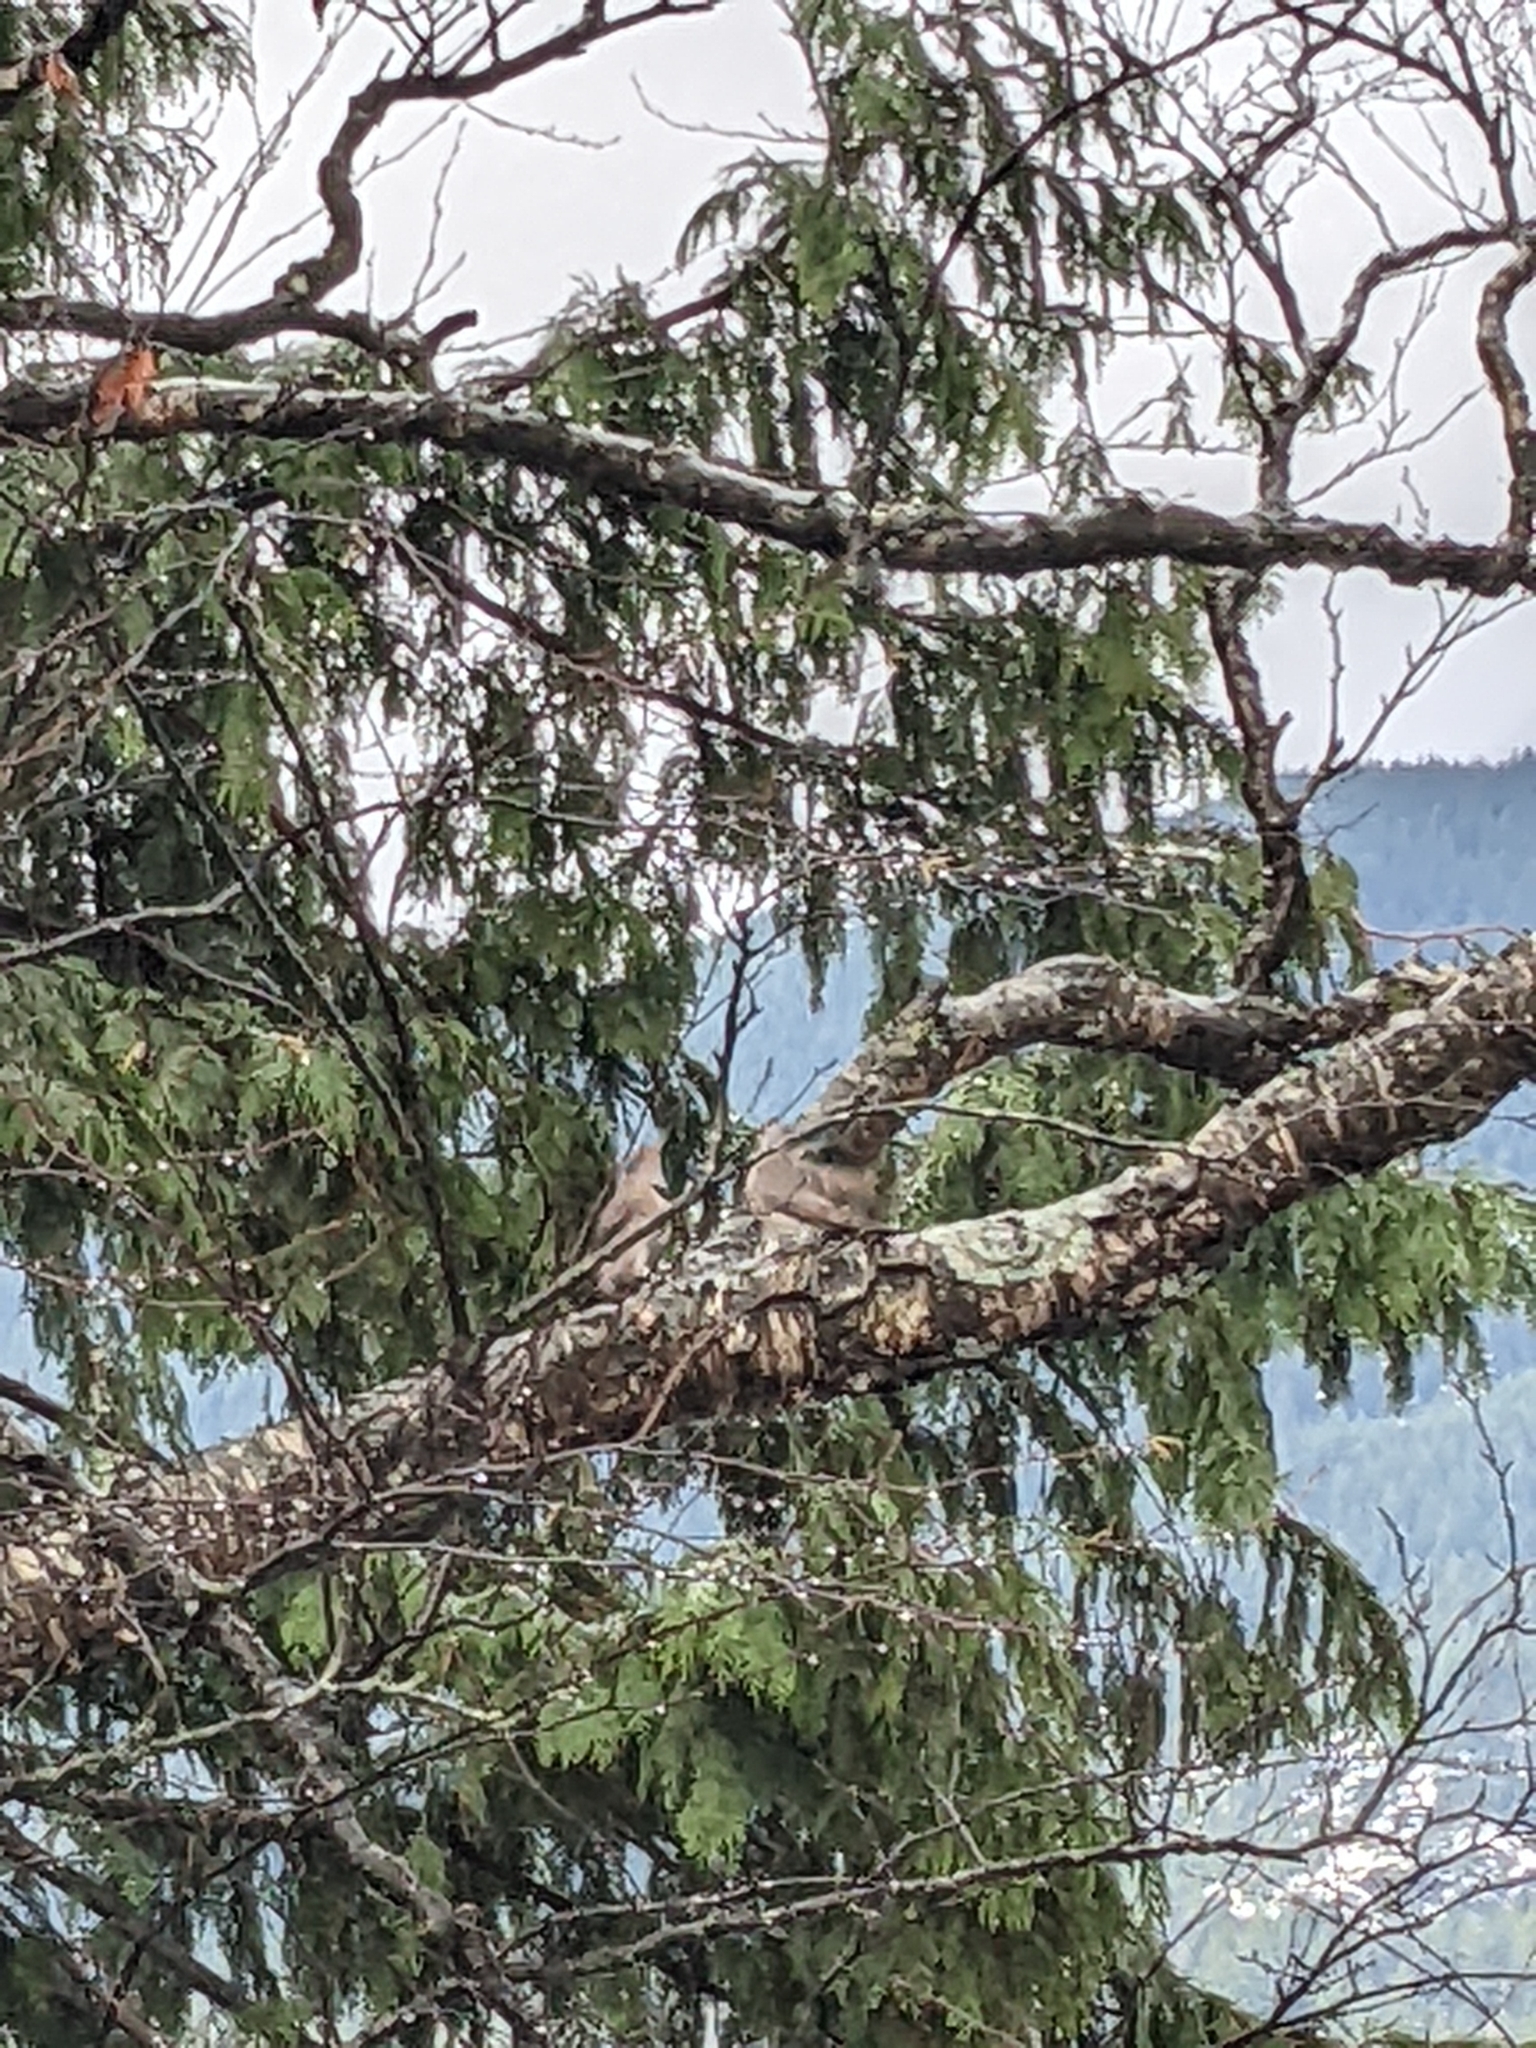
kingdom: Animalia
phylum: Chordata
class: Aves
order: Piciformes
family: Picidae
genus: Colaptes
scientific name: Colaptes auratus
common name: Northern flicker
